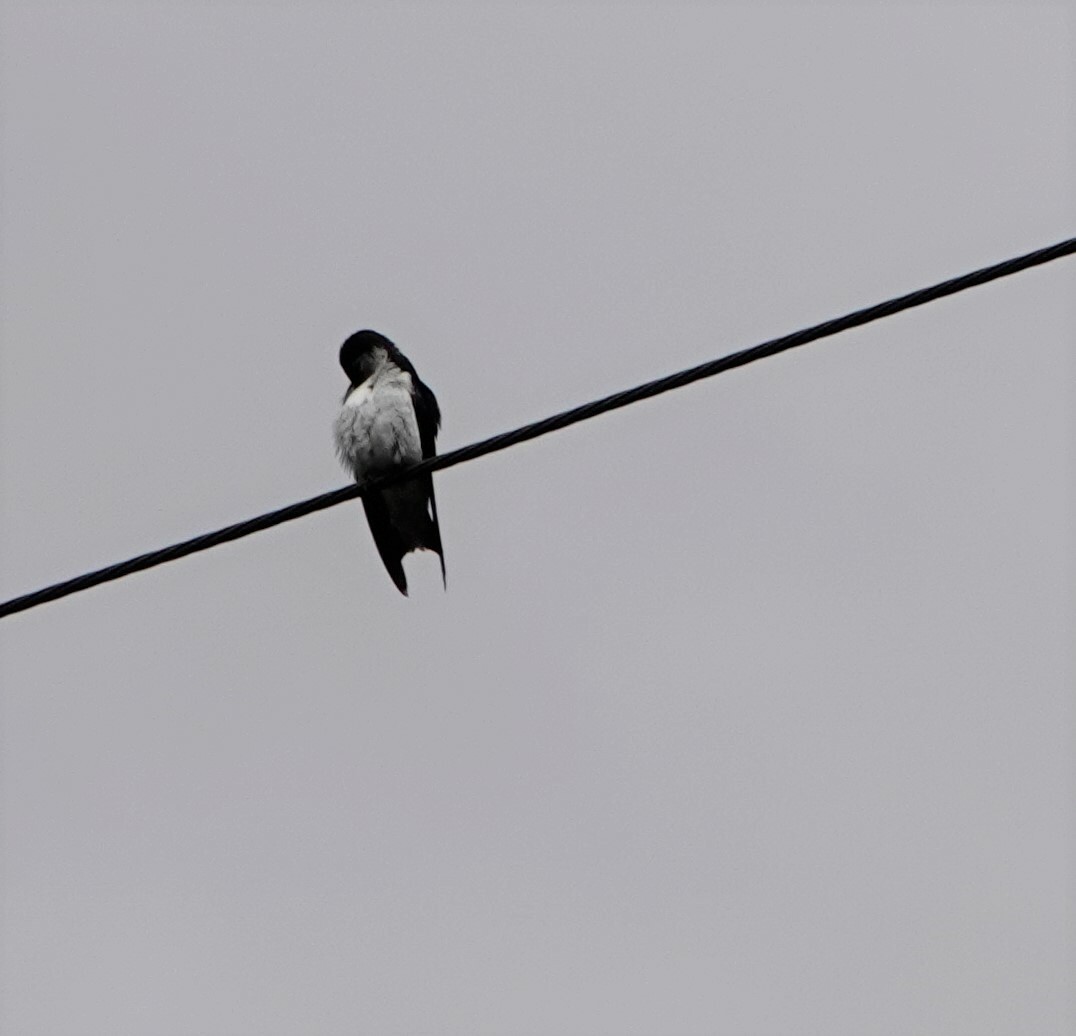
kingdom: Animalia
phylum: Chordata
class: Aves
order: Passeriformes
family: Hirundinidae
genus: Tachycineta
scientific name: Tachycineta thalassina
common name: Violet-green swallow
